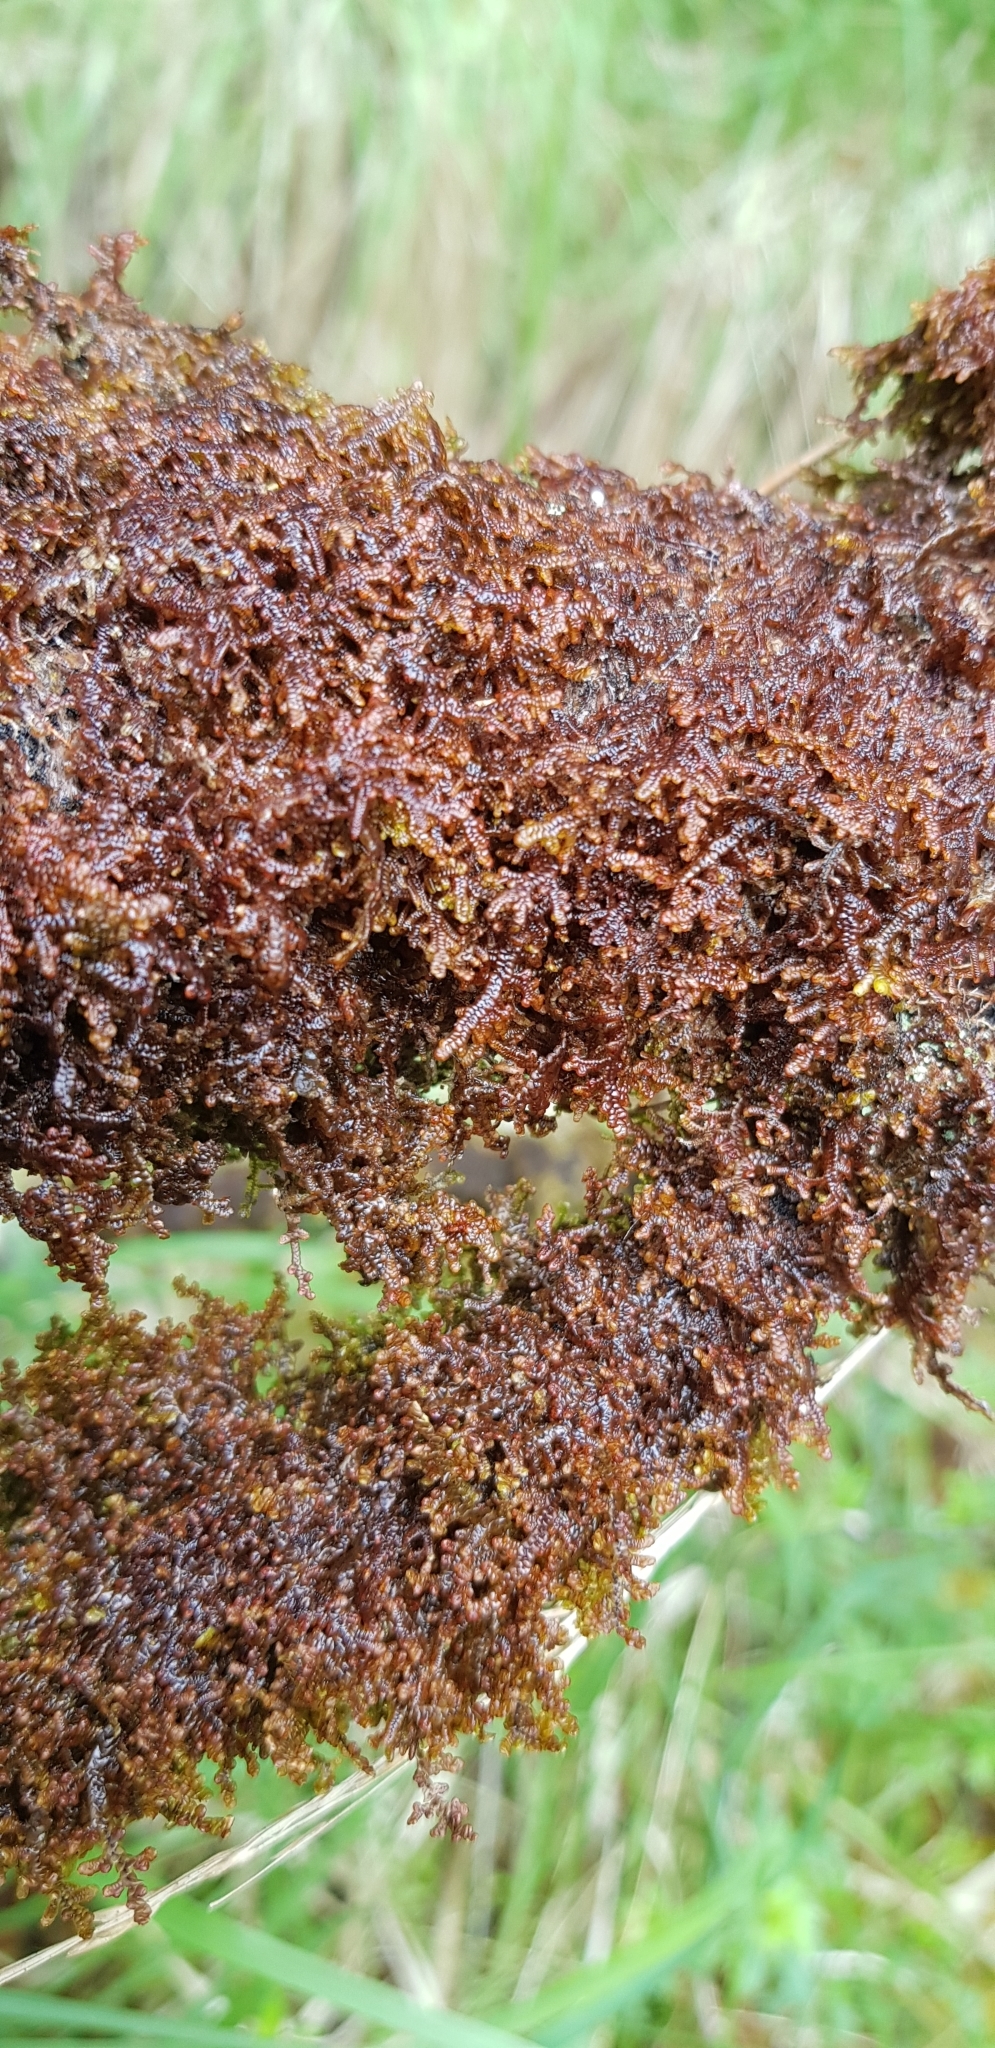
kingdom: Plantae
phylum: Marchantiophyta
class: Jungermanniopsida
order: Porellales
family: Frullaniaceae
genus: Frullania
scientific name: Frullania tamarisci
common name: Tamarisk scalewort
